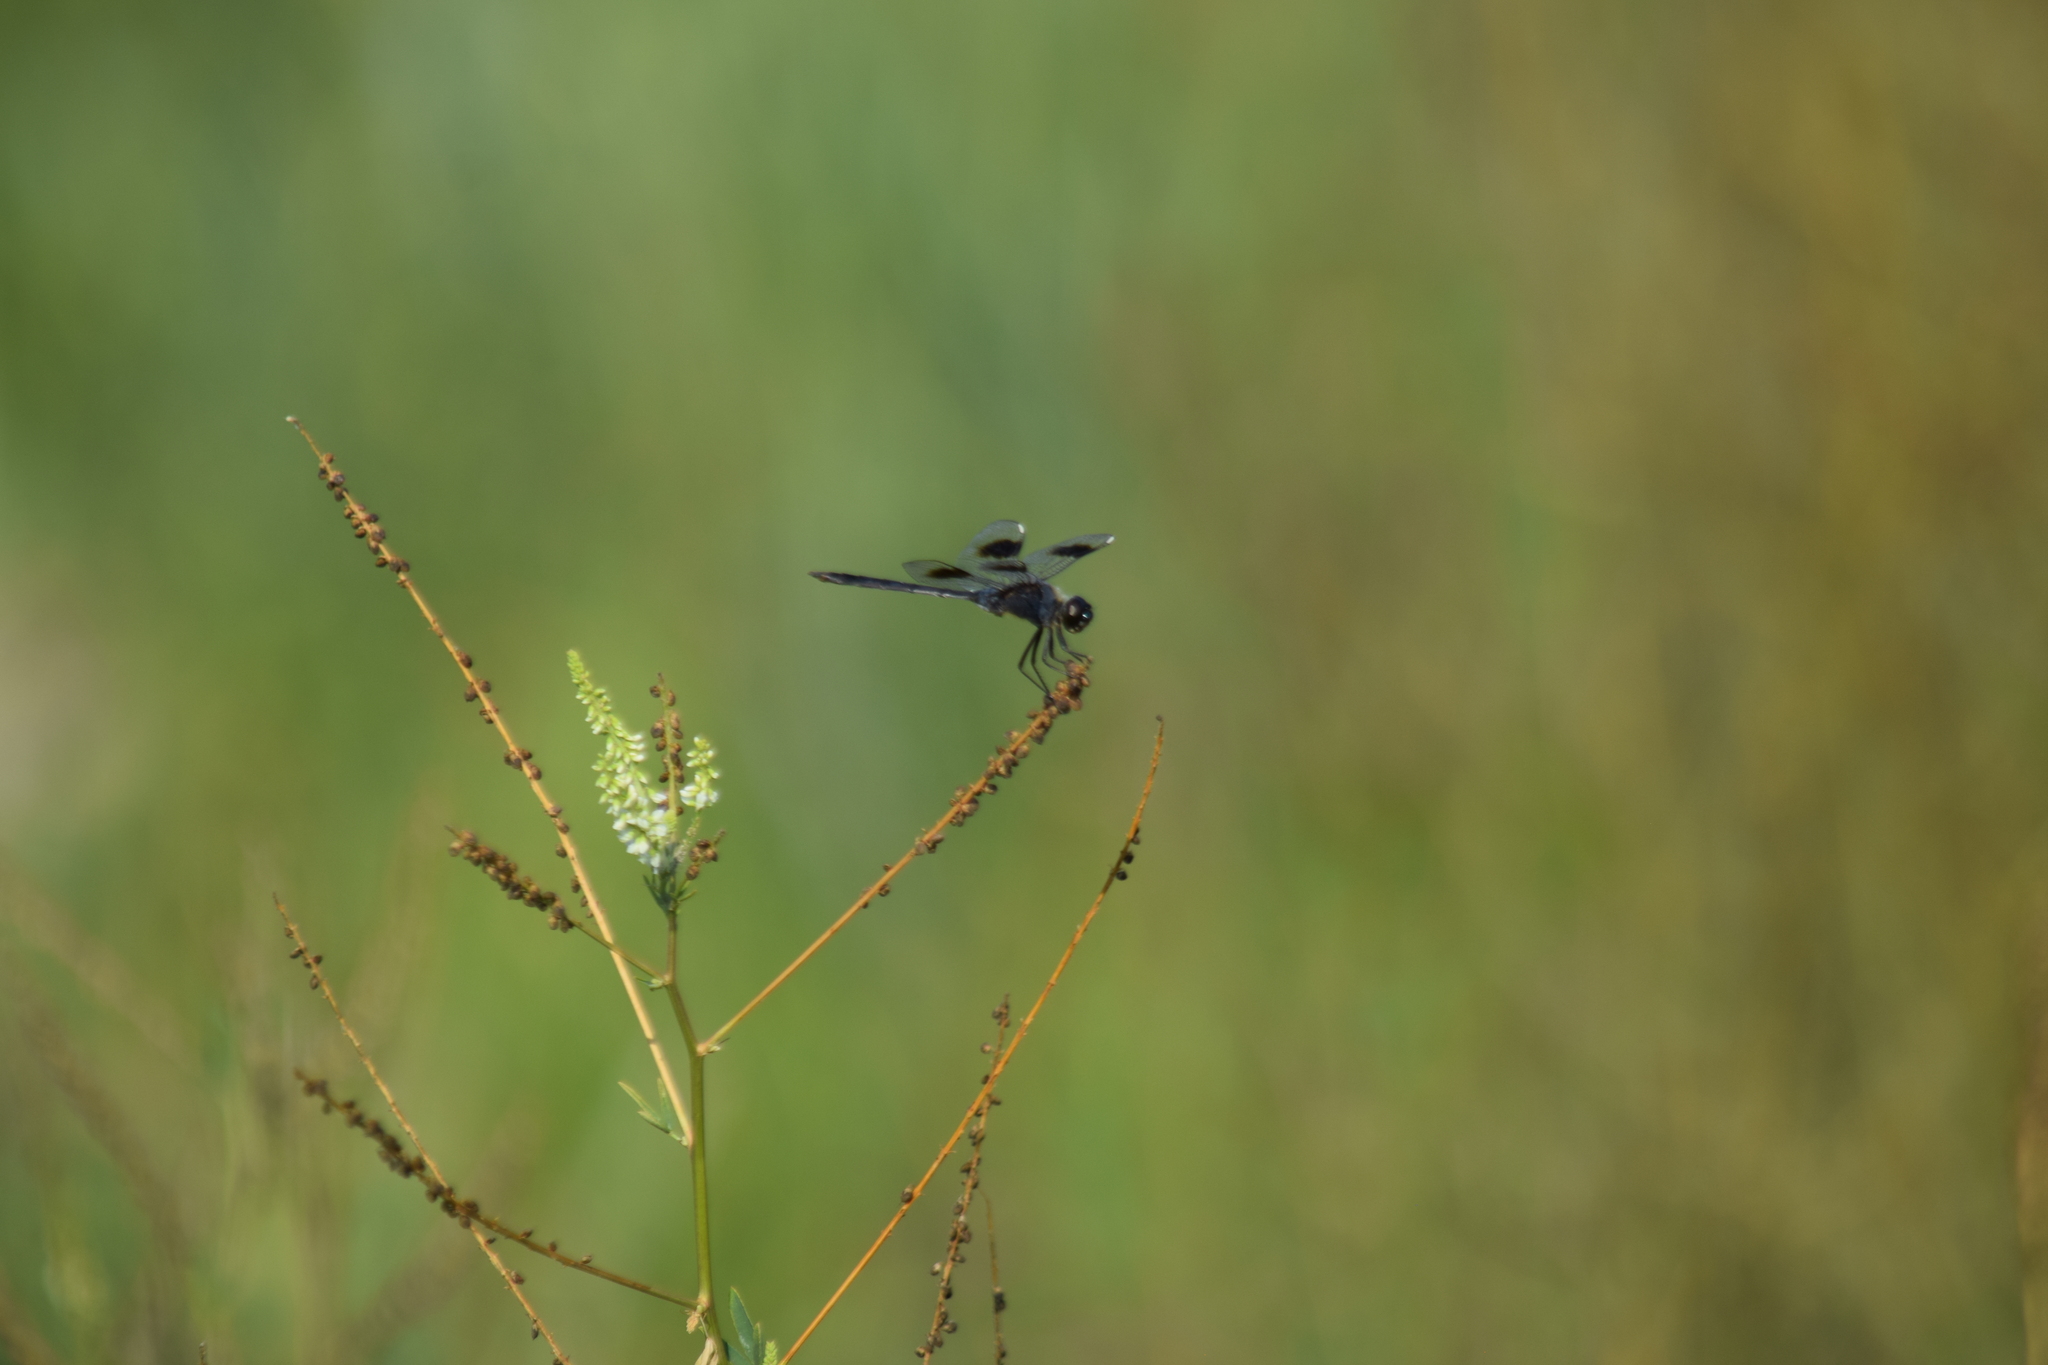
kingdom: Animalia
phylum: Arthropoda
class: Insecta
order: Odonata
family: Libellulidae
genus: Brachymesia
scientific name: Brachymesia gravida
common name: Four-spotted pennant
